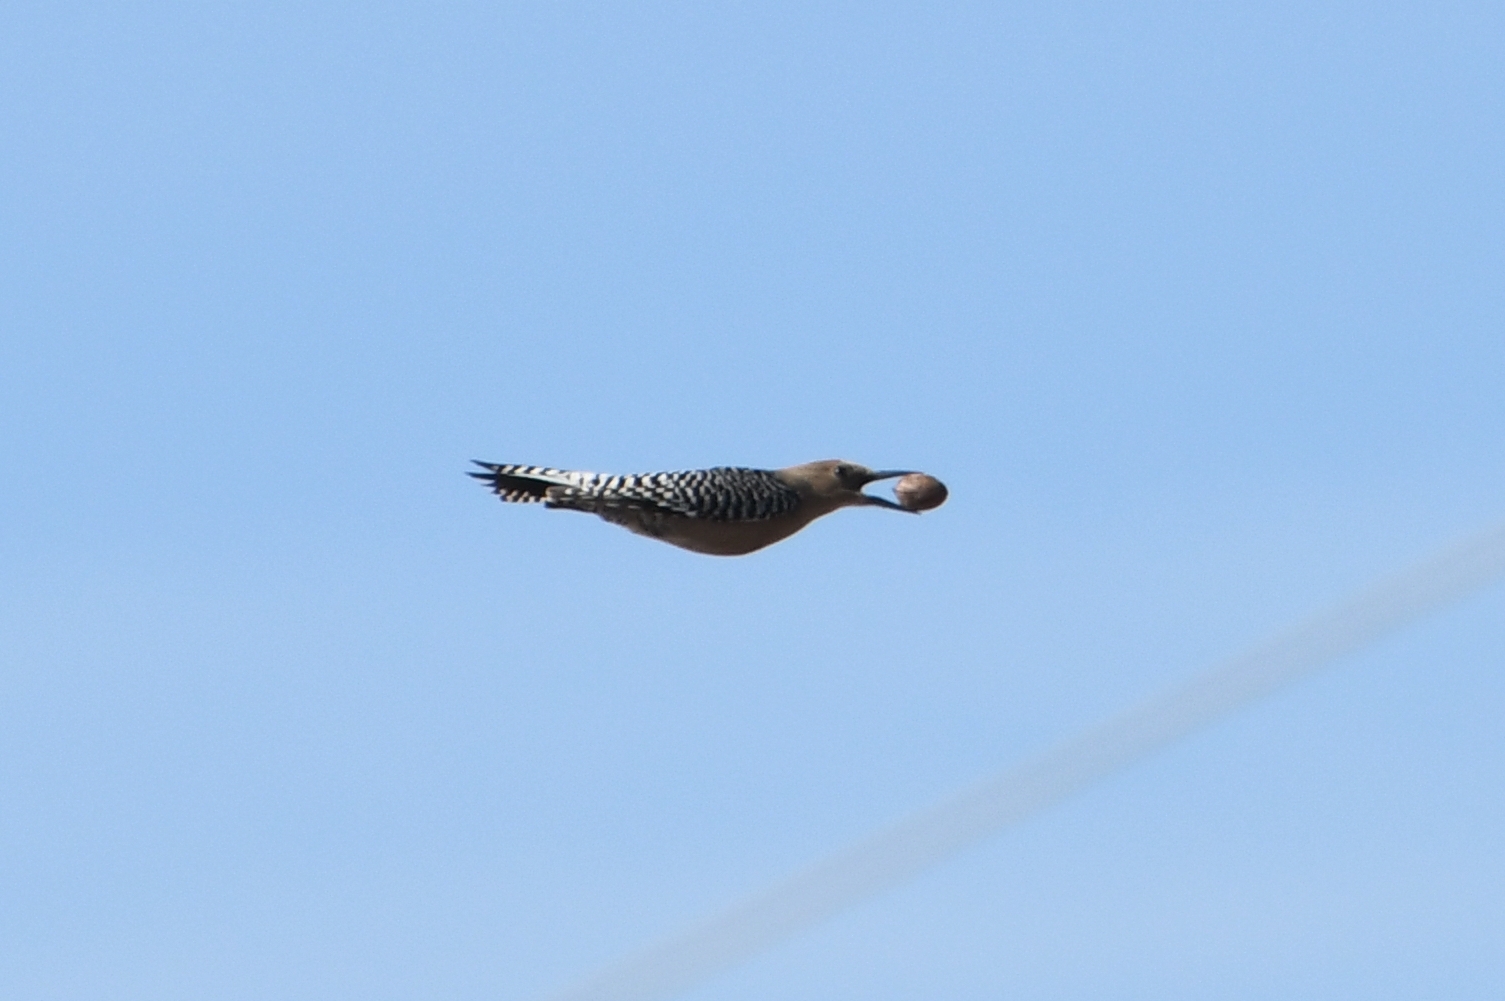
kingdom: Animalia
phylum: Chordata
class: Aves
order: Piciformes
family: Picidae
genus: Melanerpes
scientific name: Melanerpes uropygialis
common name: Gila woodpecker
